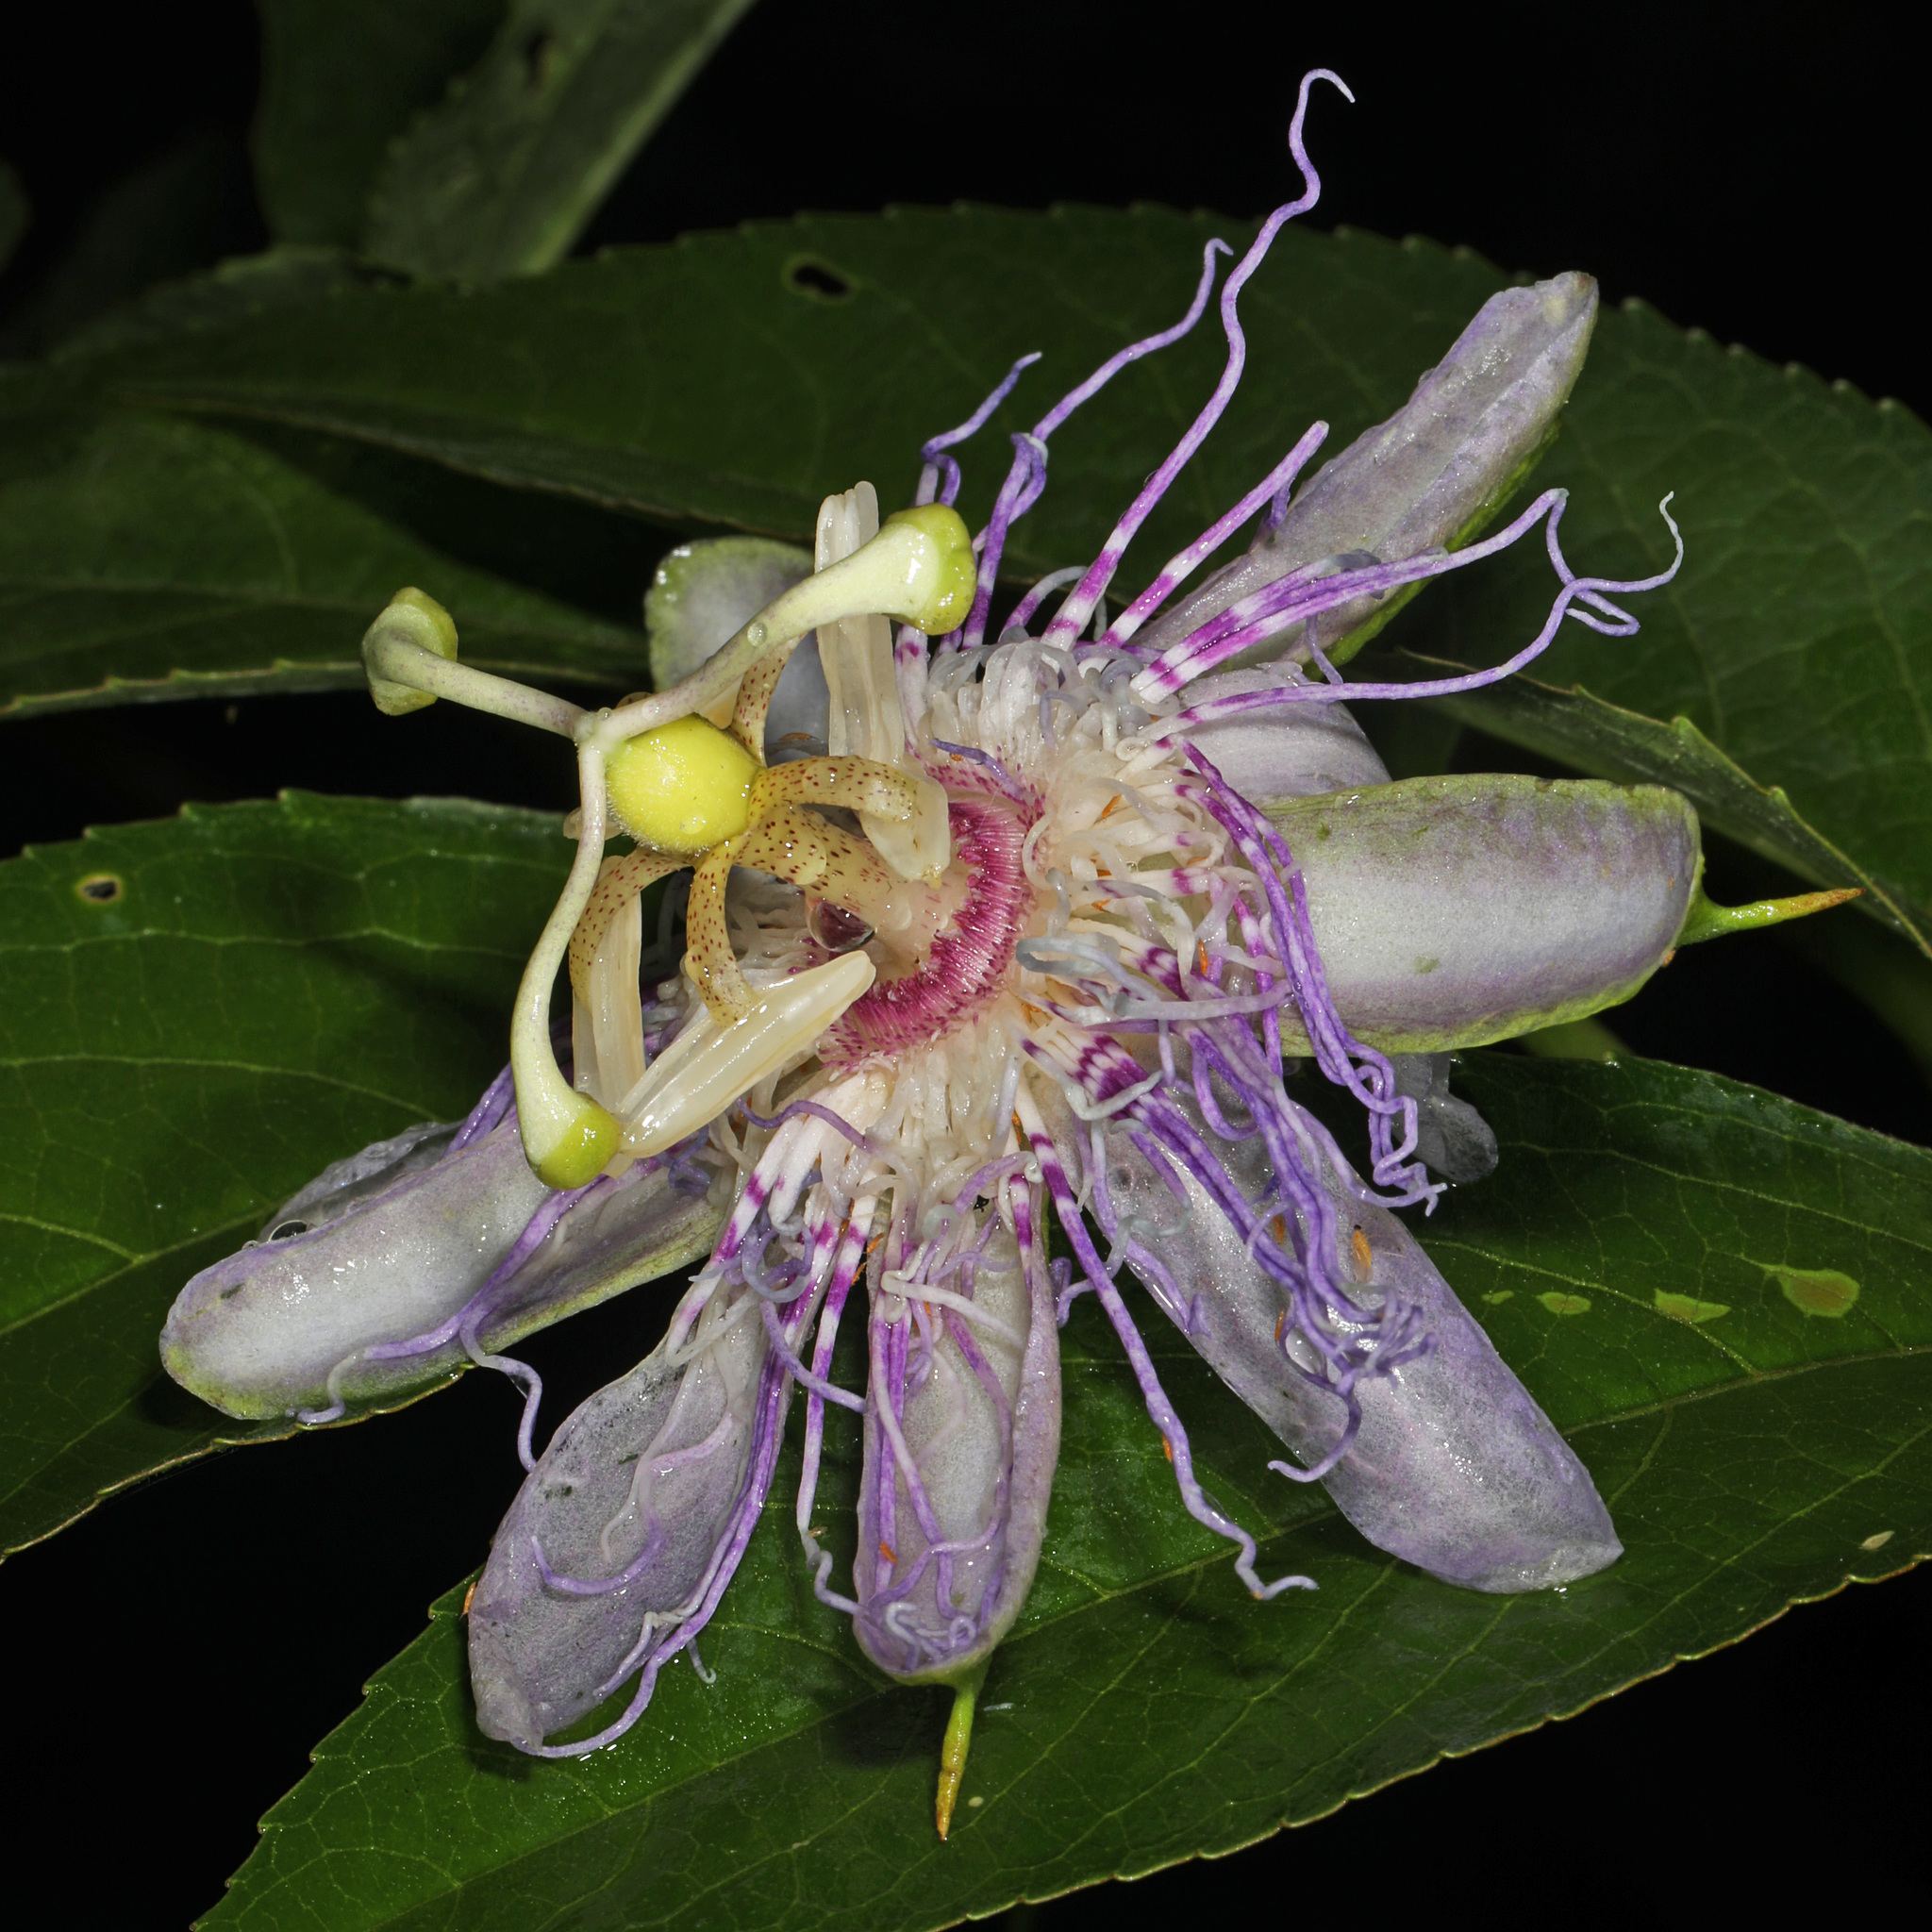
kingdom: Plantae
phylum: Tracheophyta
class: Magnoliopsida
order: Malpighiales
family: Passifloraceae
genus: Passiflora
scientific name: Passiflora incarnata
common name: Apricot-vine
